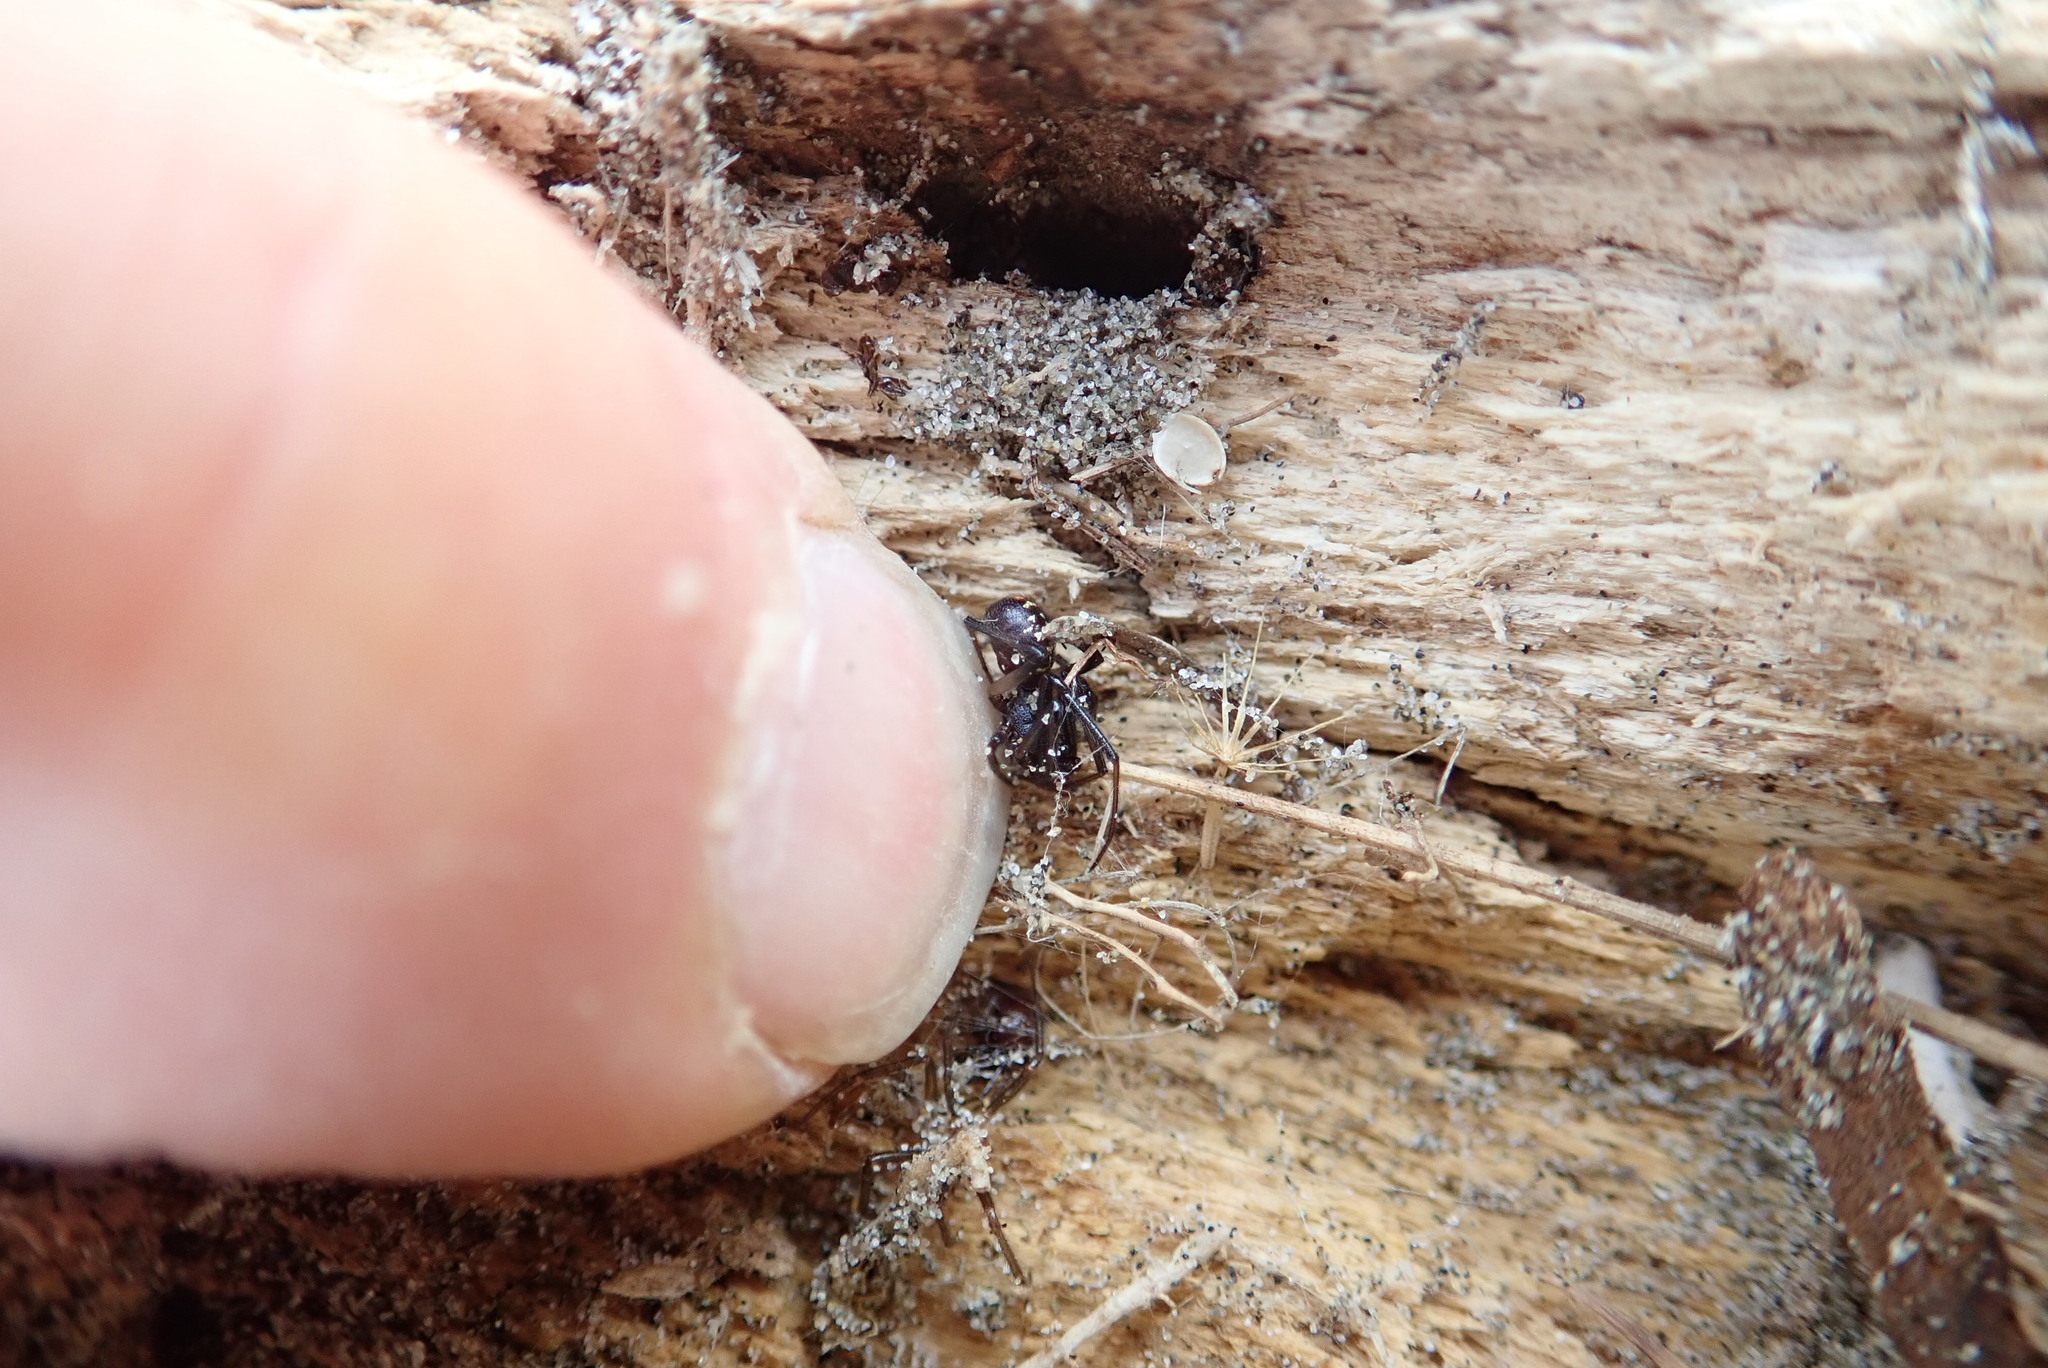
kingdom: Animalia
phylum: Arthropoda
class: Arachnida
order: Araneae
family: Theridiidae
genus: Steatoda
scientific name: Steatoda capensis
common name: Cobweb weaver
